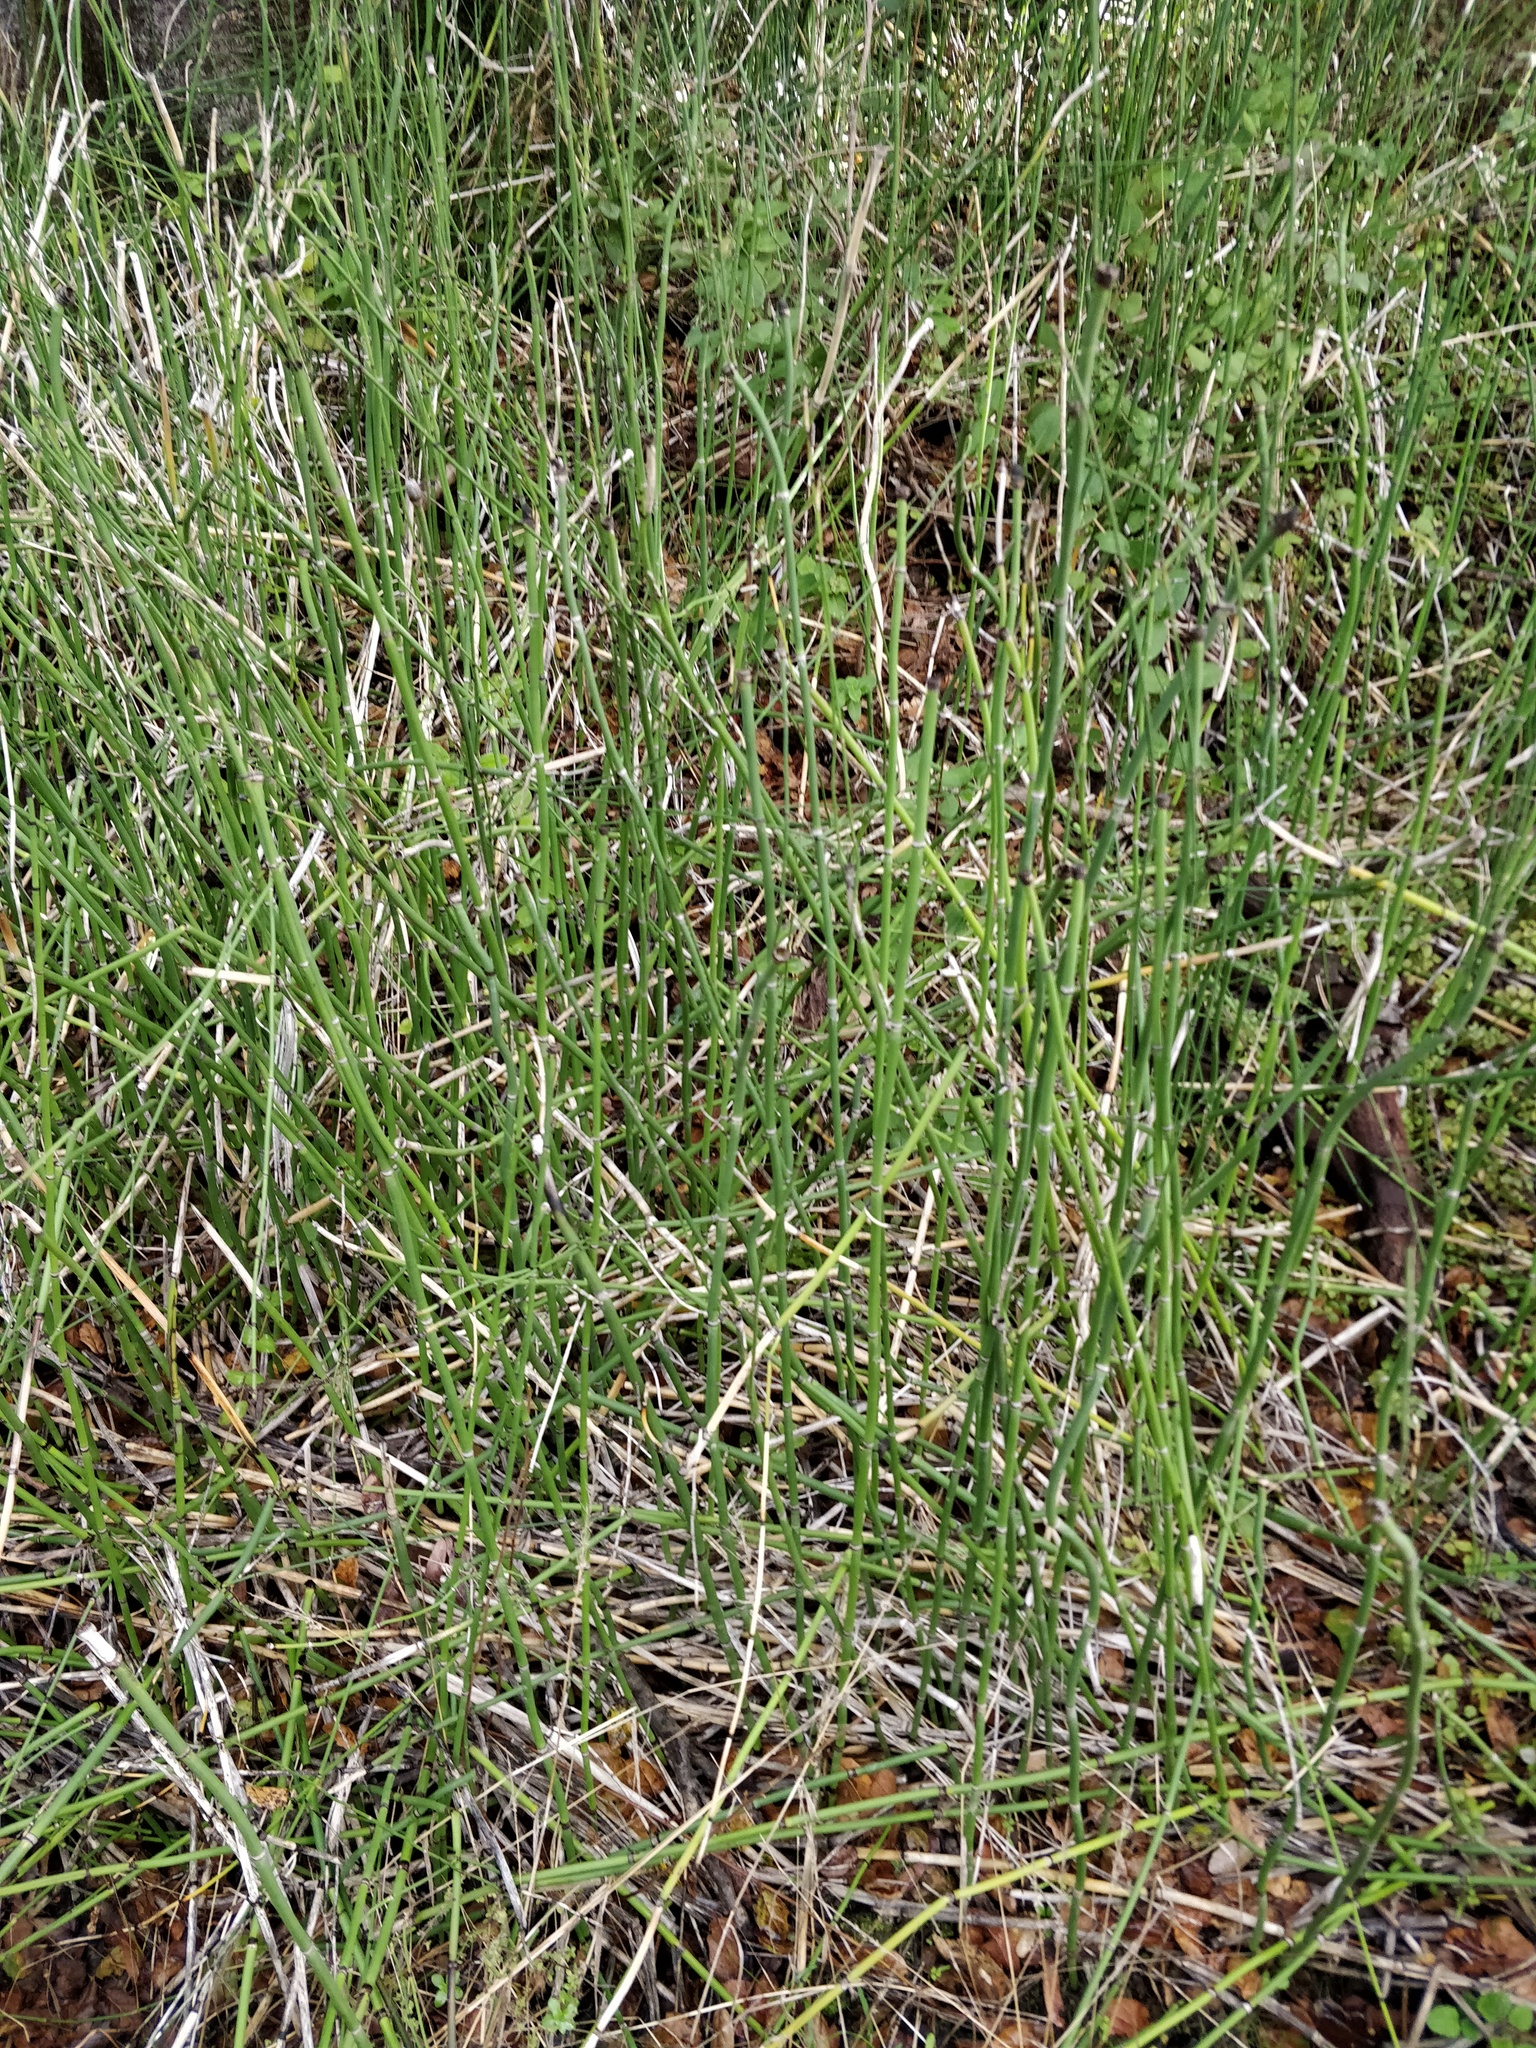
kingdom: Plantae
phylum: Tracheophyta
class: Polypodiopsida
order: Equisetales
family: Equisetaceae
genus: Equisetum
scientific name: Equisetum praealtum
